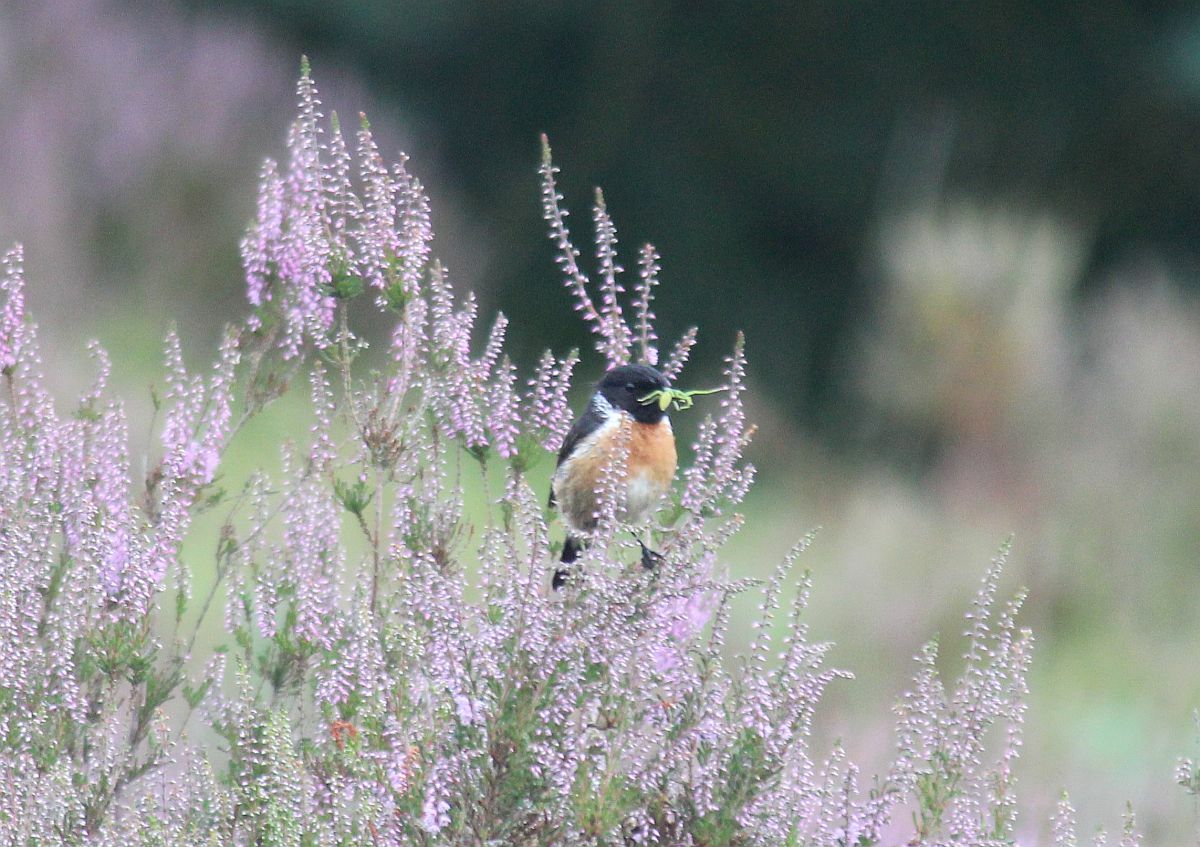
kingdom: Animalia
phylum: Chordata
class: Aves
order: Passeriformes
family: Muscicapidae
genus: Saxicola
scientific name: Saxicola rubicola
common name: European stonechat
